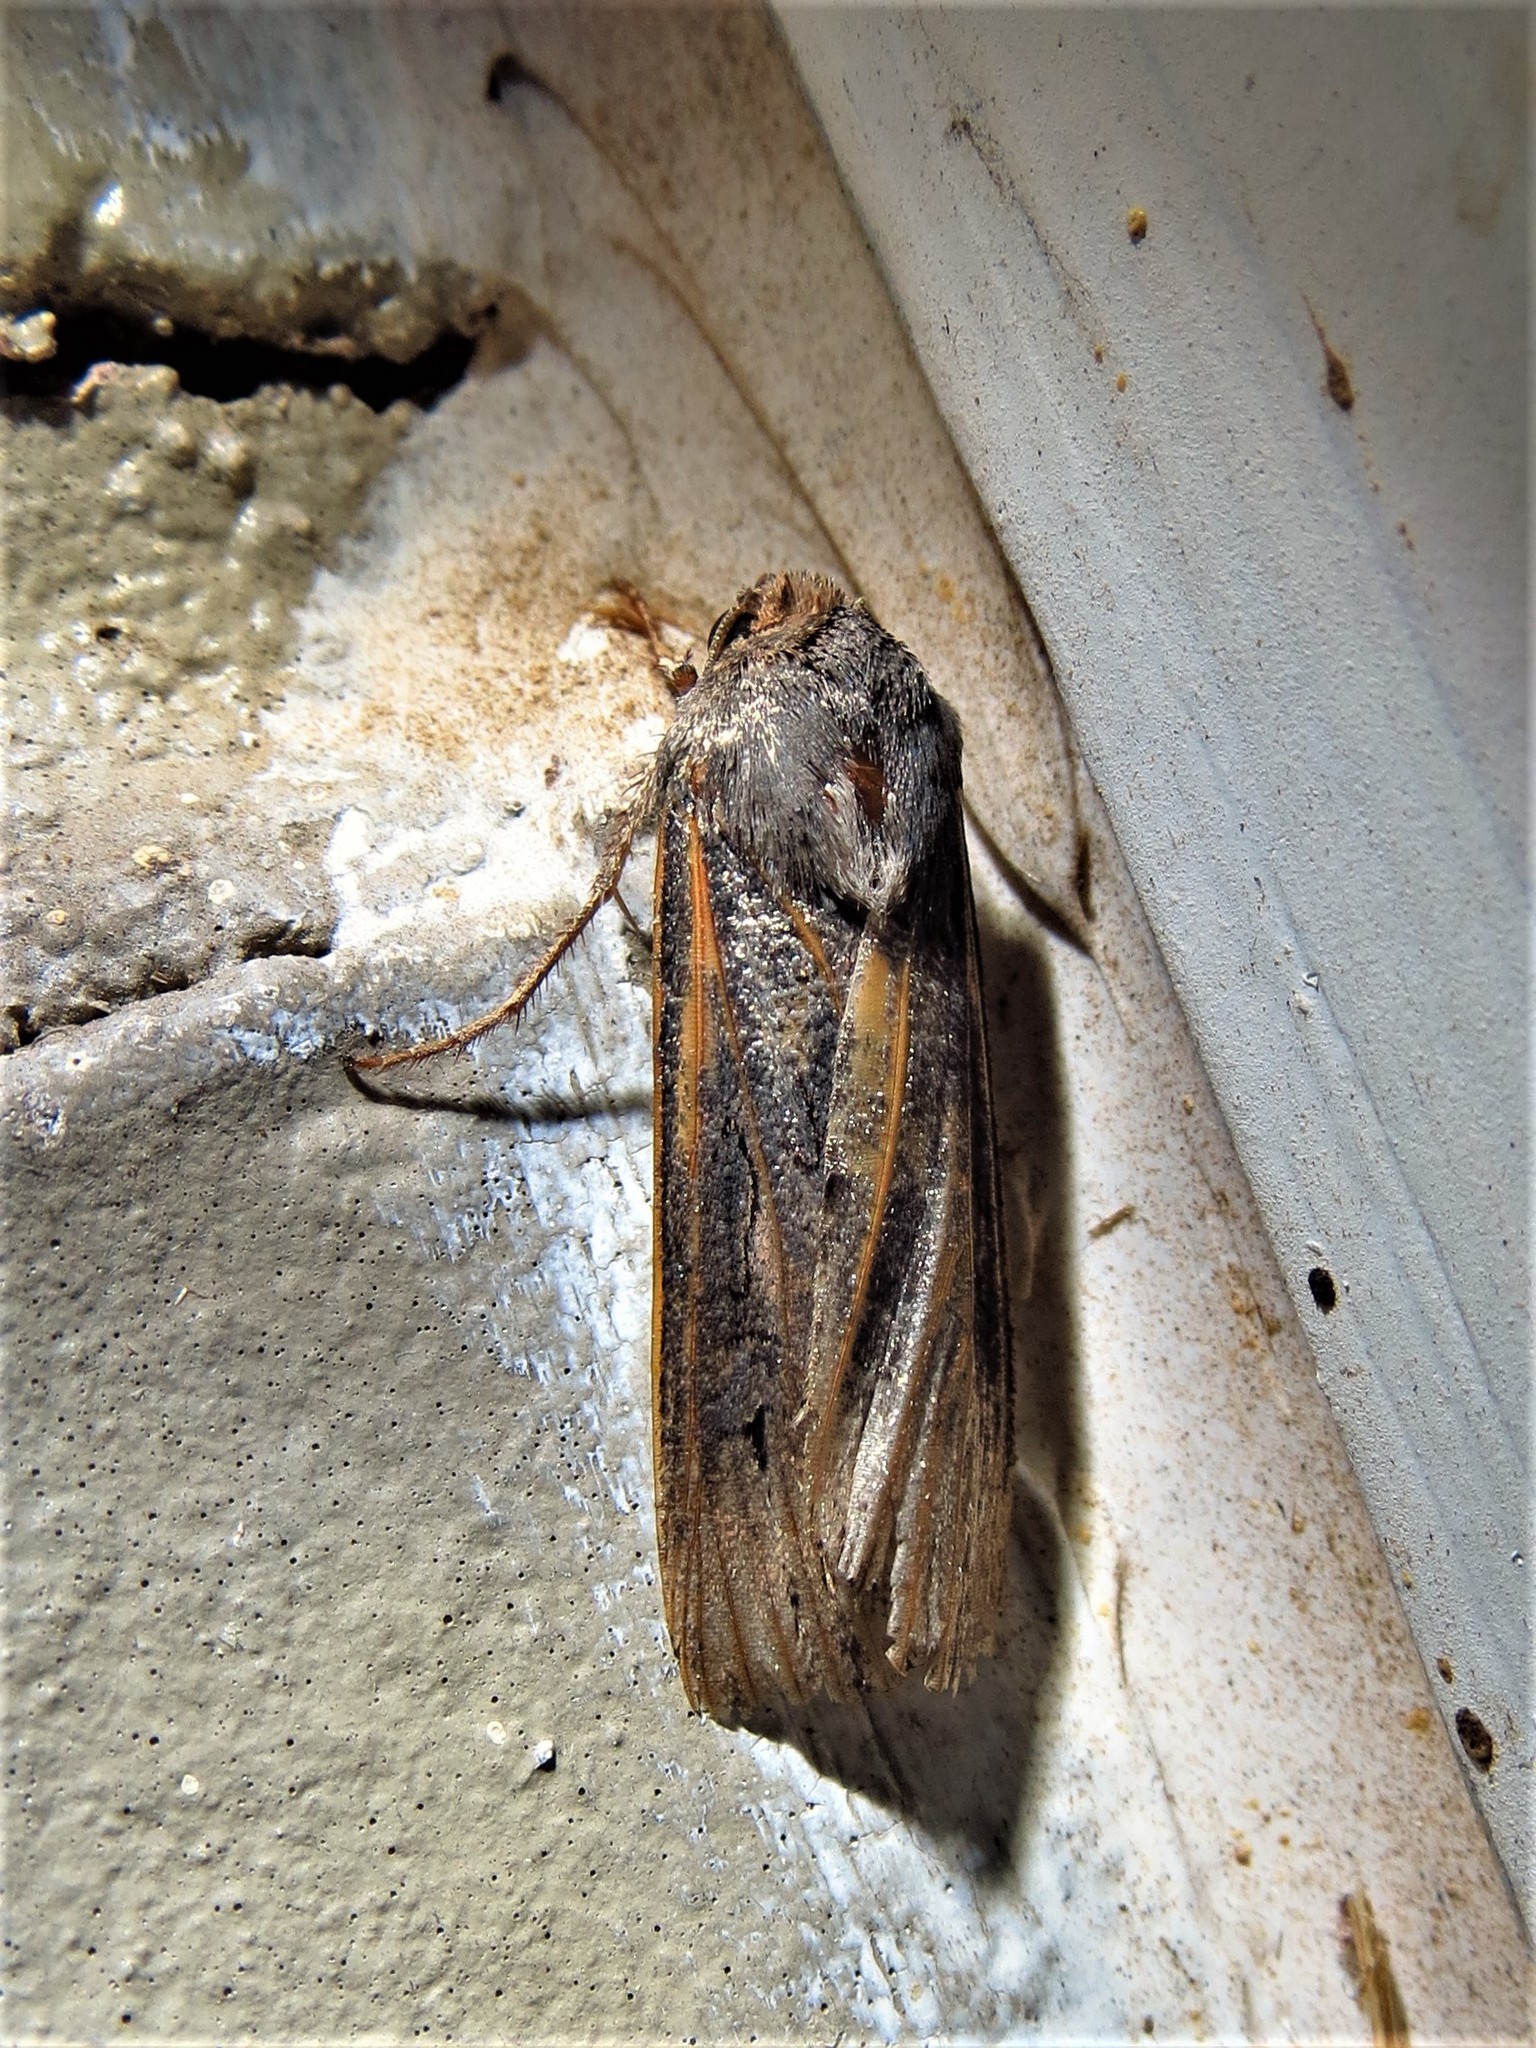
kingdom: Animalia
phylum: Arthropoda
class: Insecta
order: Lepidoptera
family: Noctuidae
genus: Agrotis
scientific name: Agrotis ipsilon
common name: Dark sword-grass
